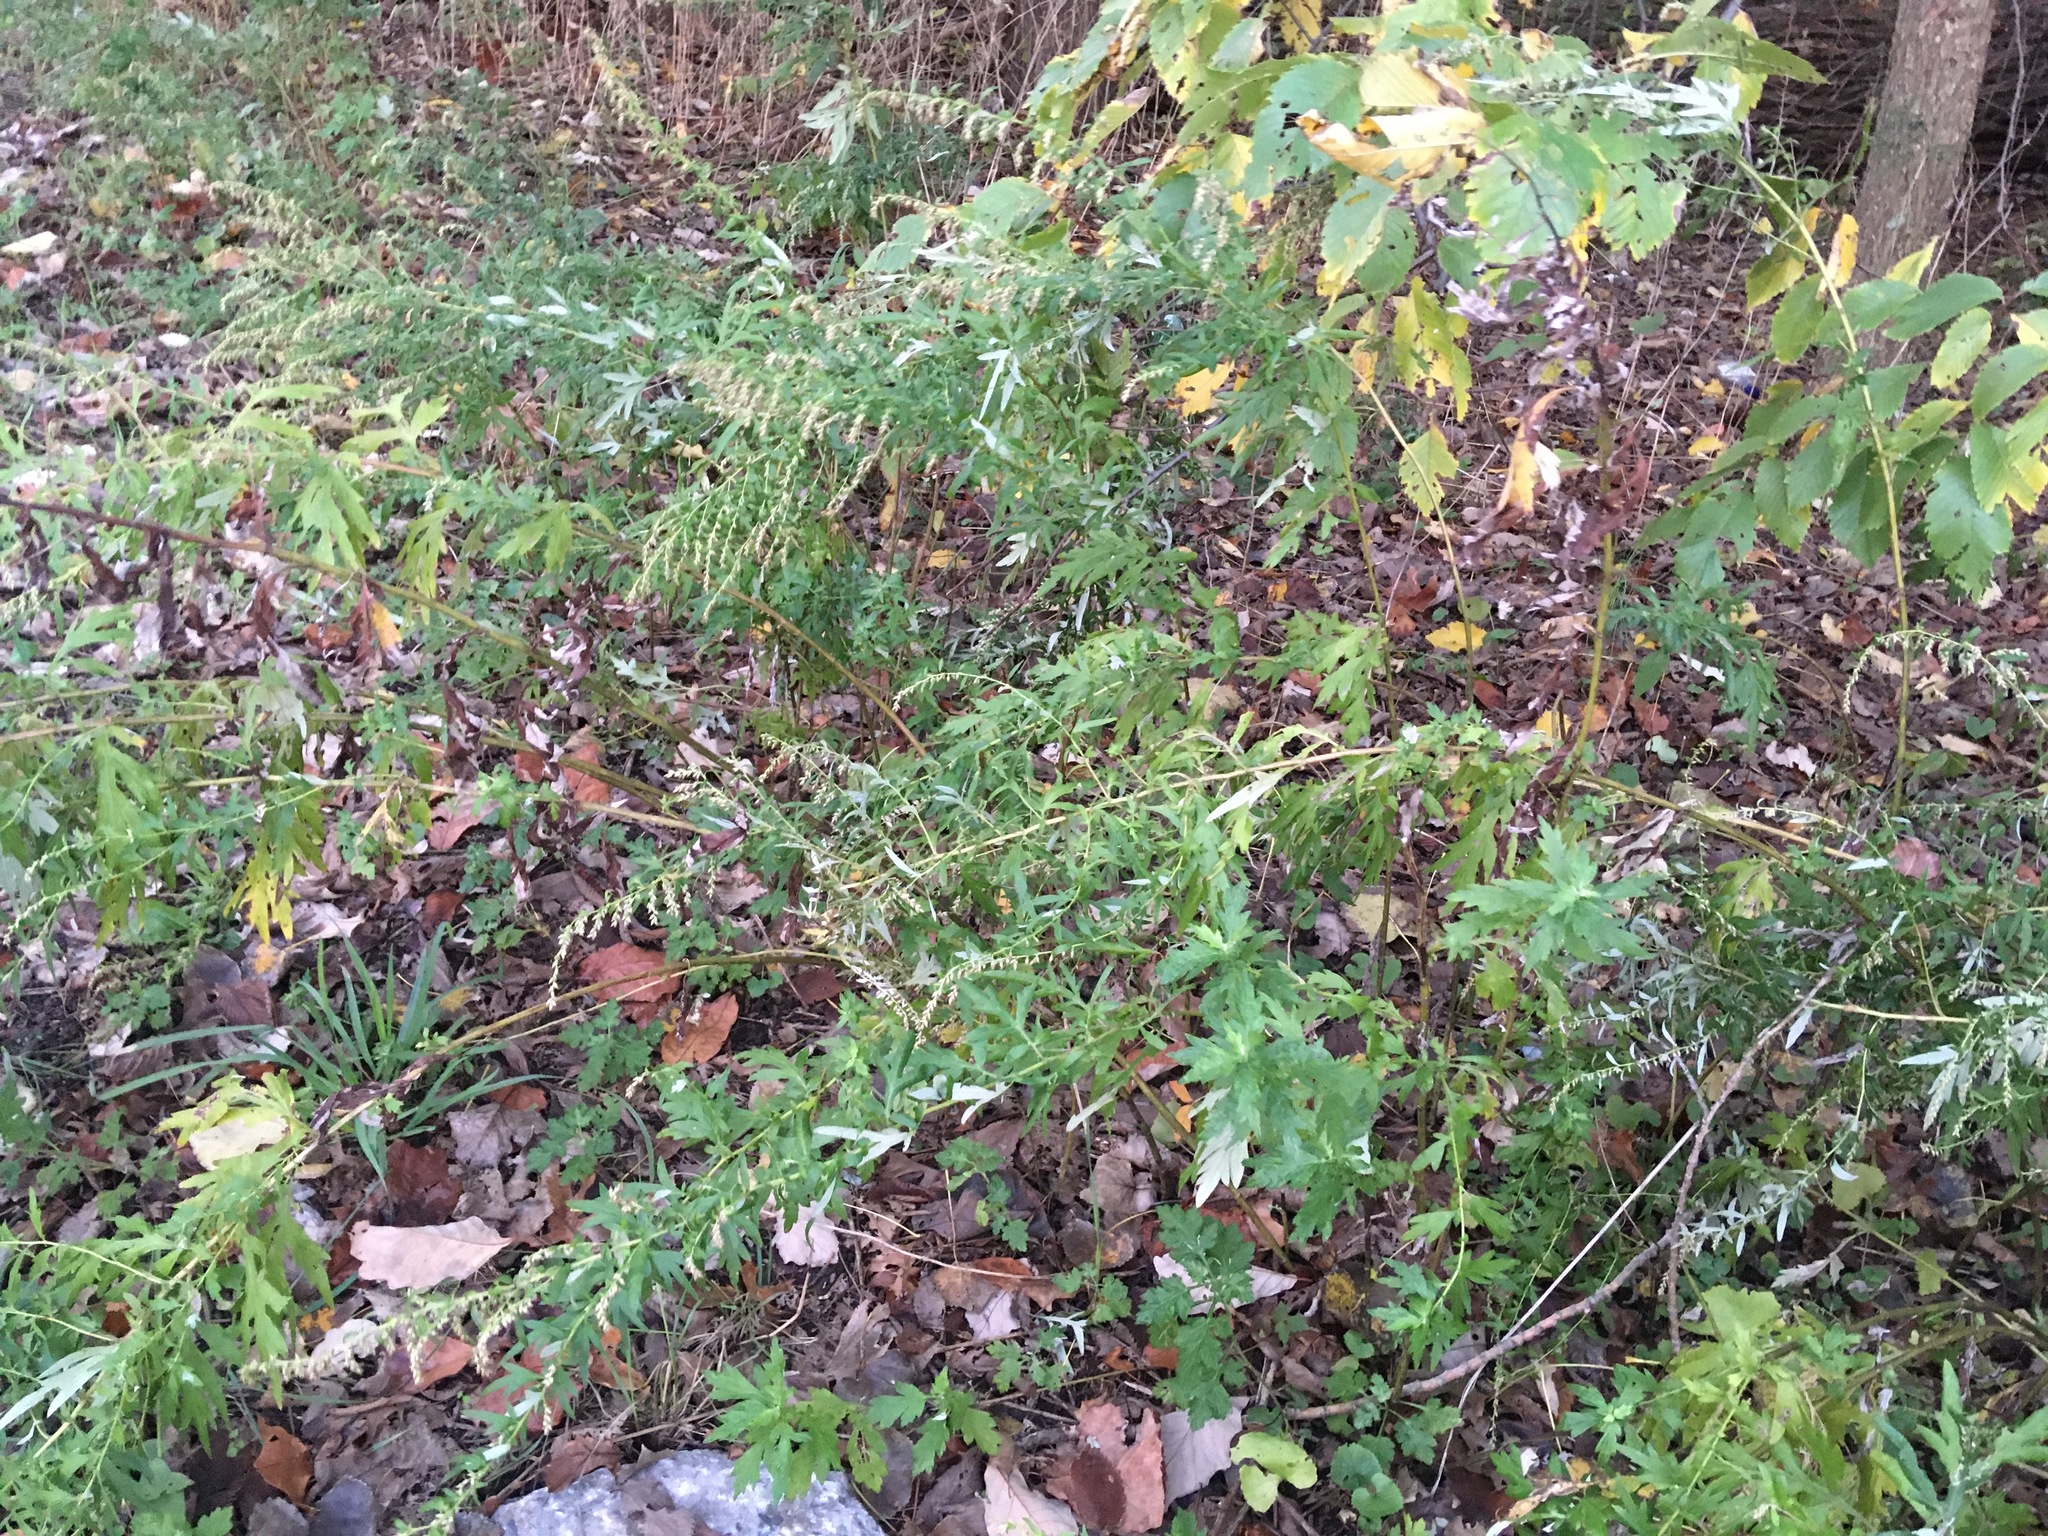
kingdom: Plantae
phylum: Tracheophyta
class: Magnoliopsida
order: Asterales
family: Asteraceae
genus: Artemisia
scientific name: Artemisia vulgaris
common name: Mugwort
